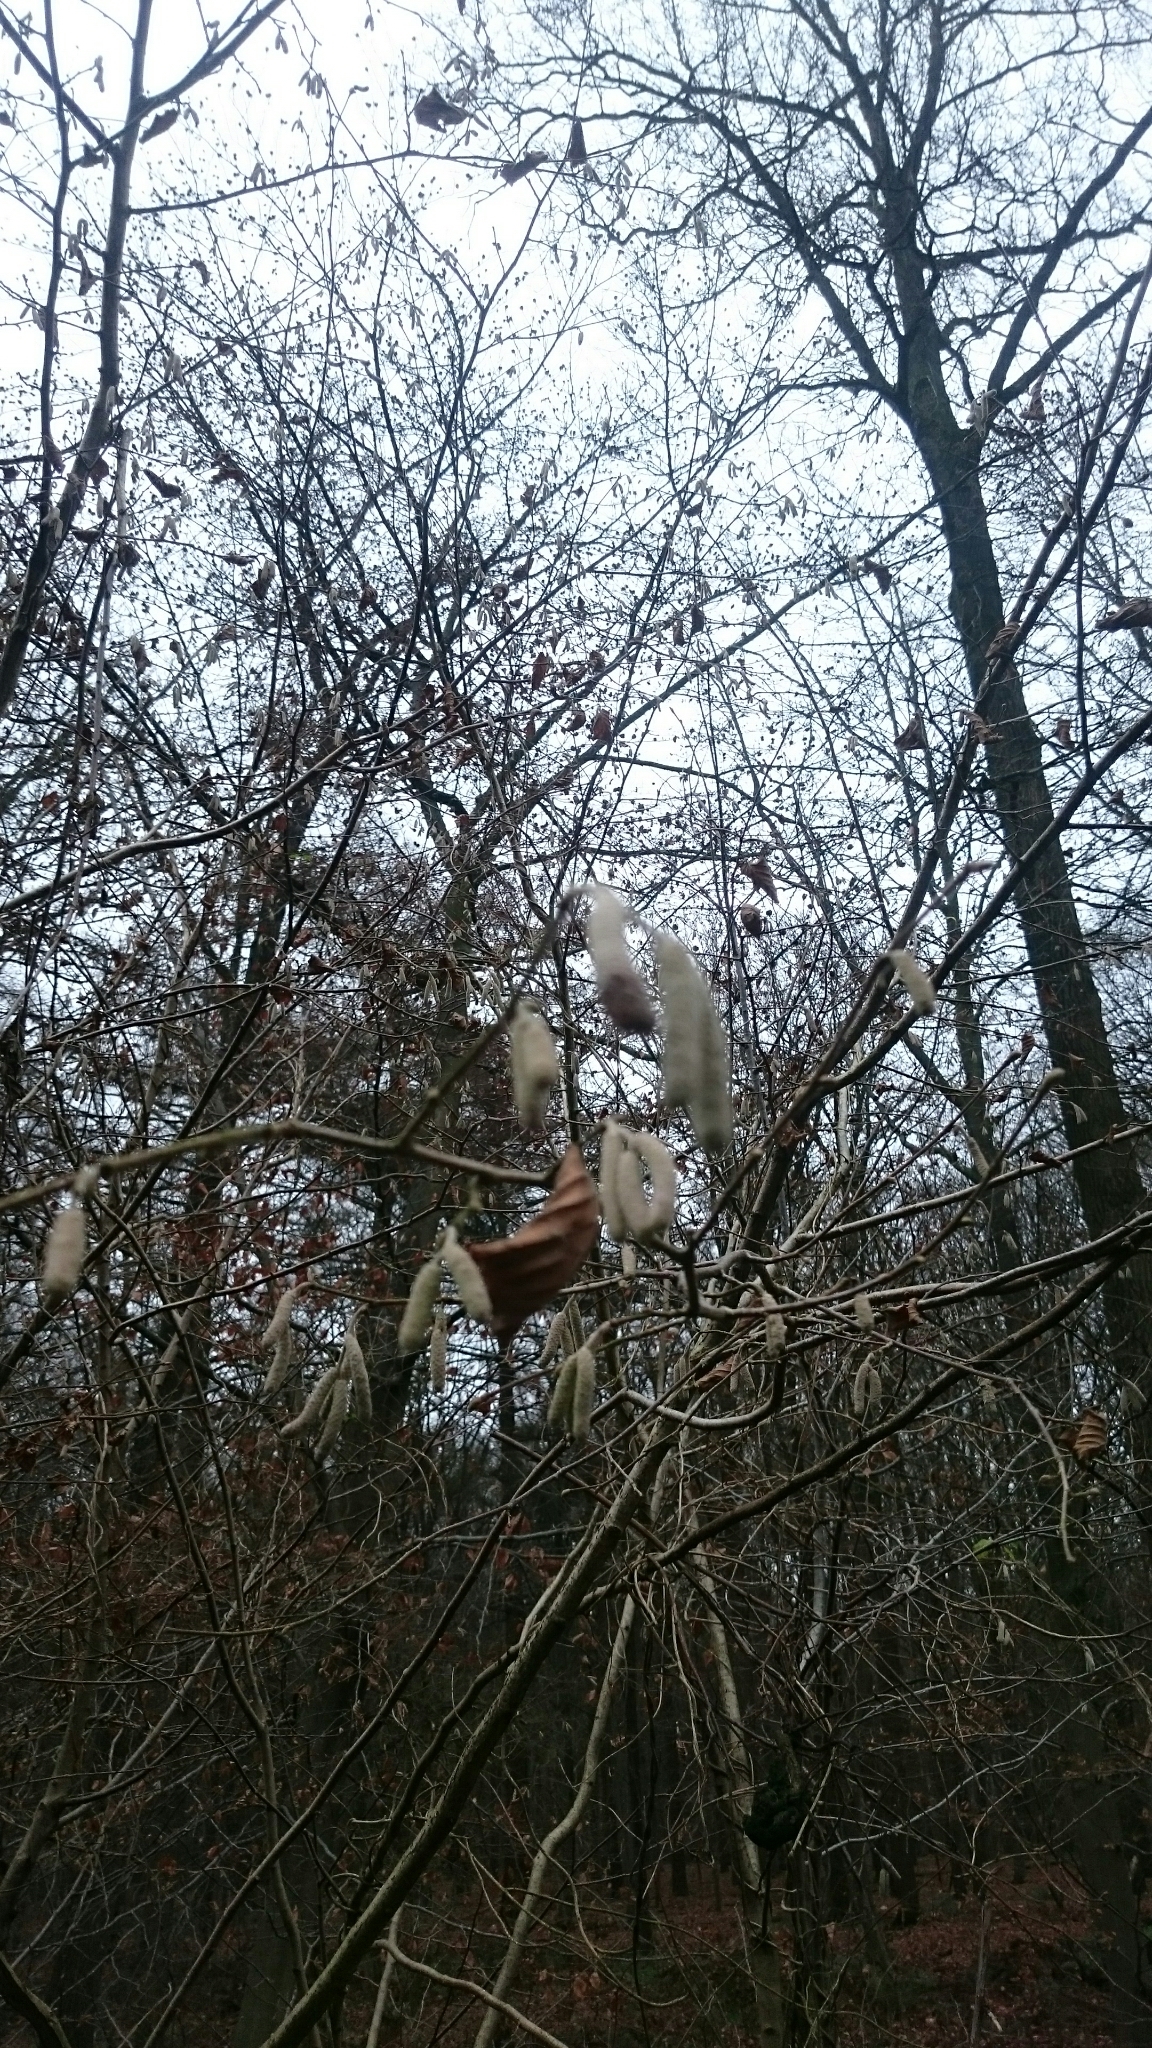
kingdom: Plantae
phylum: Tracheophyta
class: Magnoliopsida
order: Fagales
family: Betulaceae
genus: Corylus
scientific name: Corylus avellana
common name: European hazel
